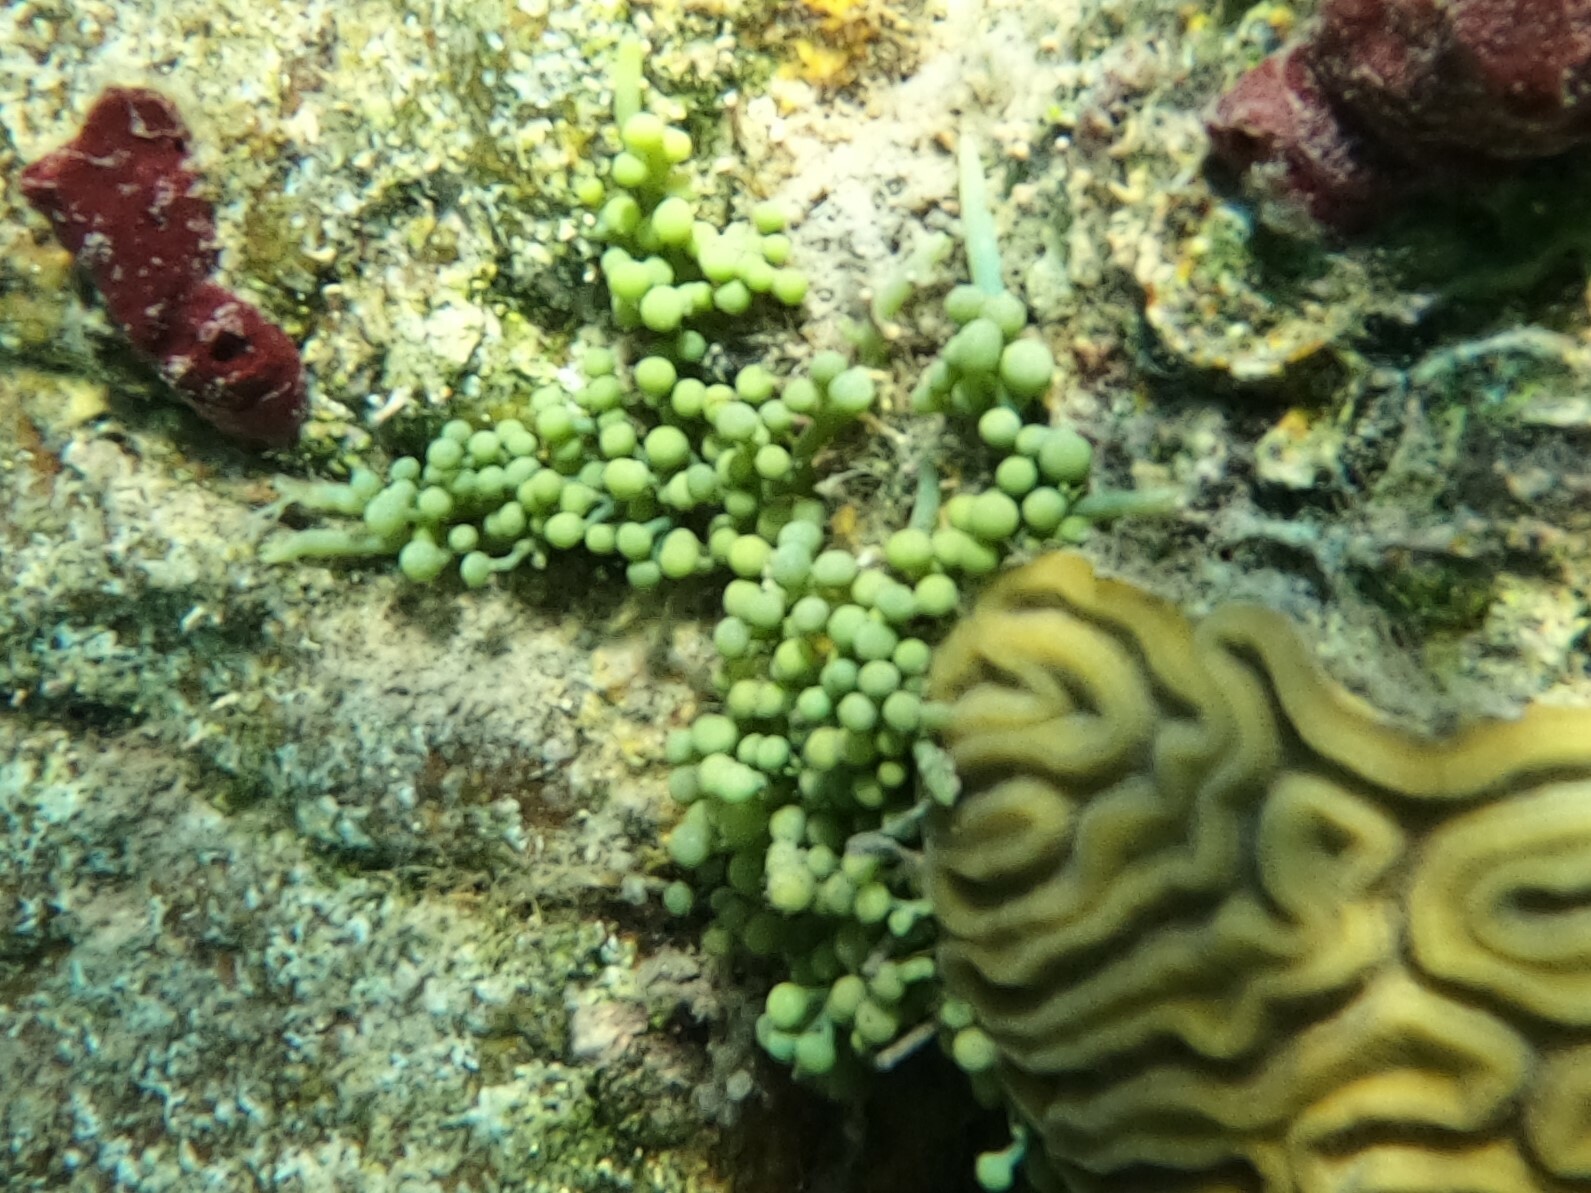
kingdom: Plantae
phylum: Chlorophyta
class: Ulvophyceae
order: Bryopsidales
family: Caulerpaceae
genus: Caulerpa
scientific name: Caulerpa racemosa
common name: Green grape algae
